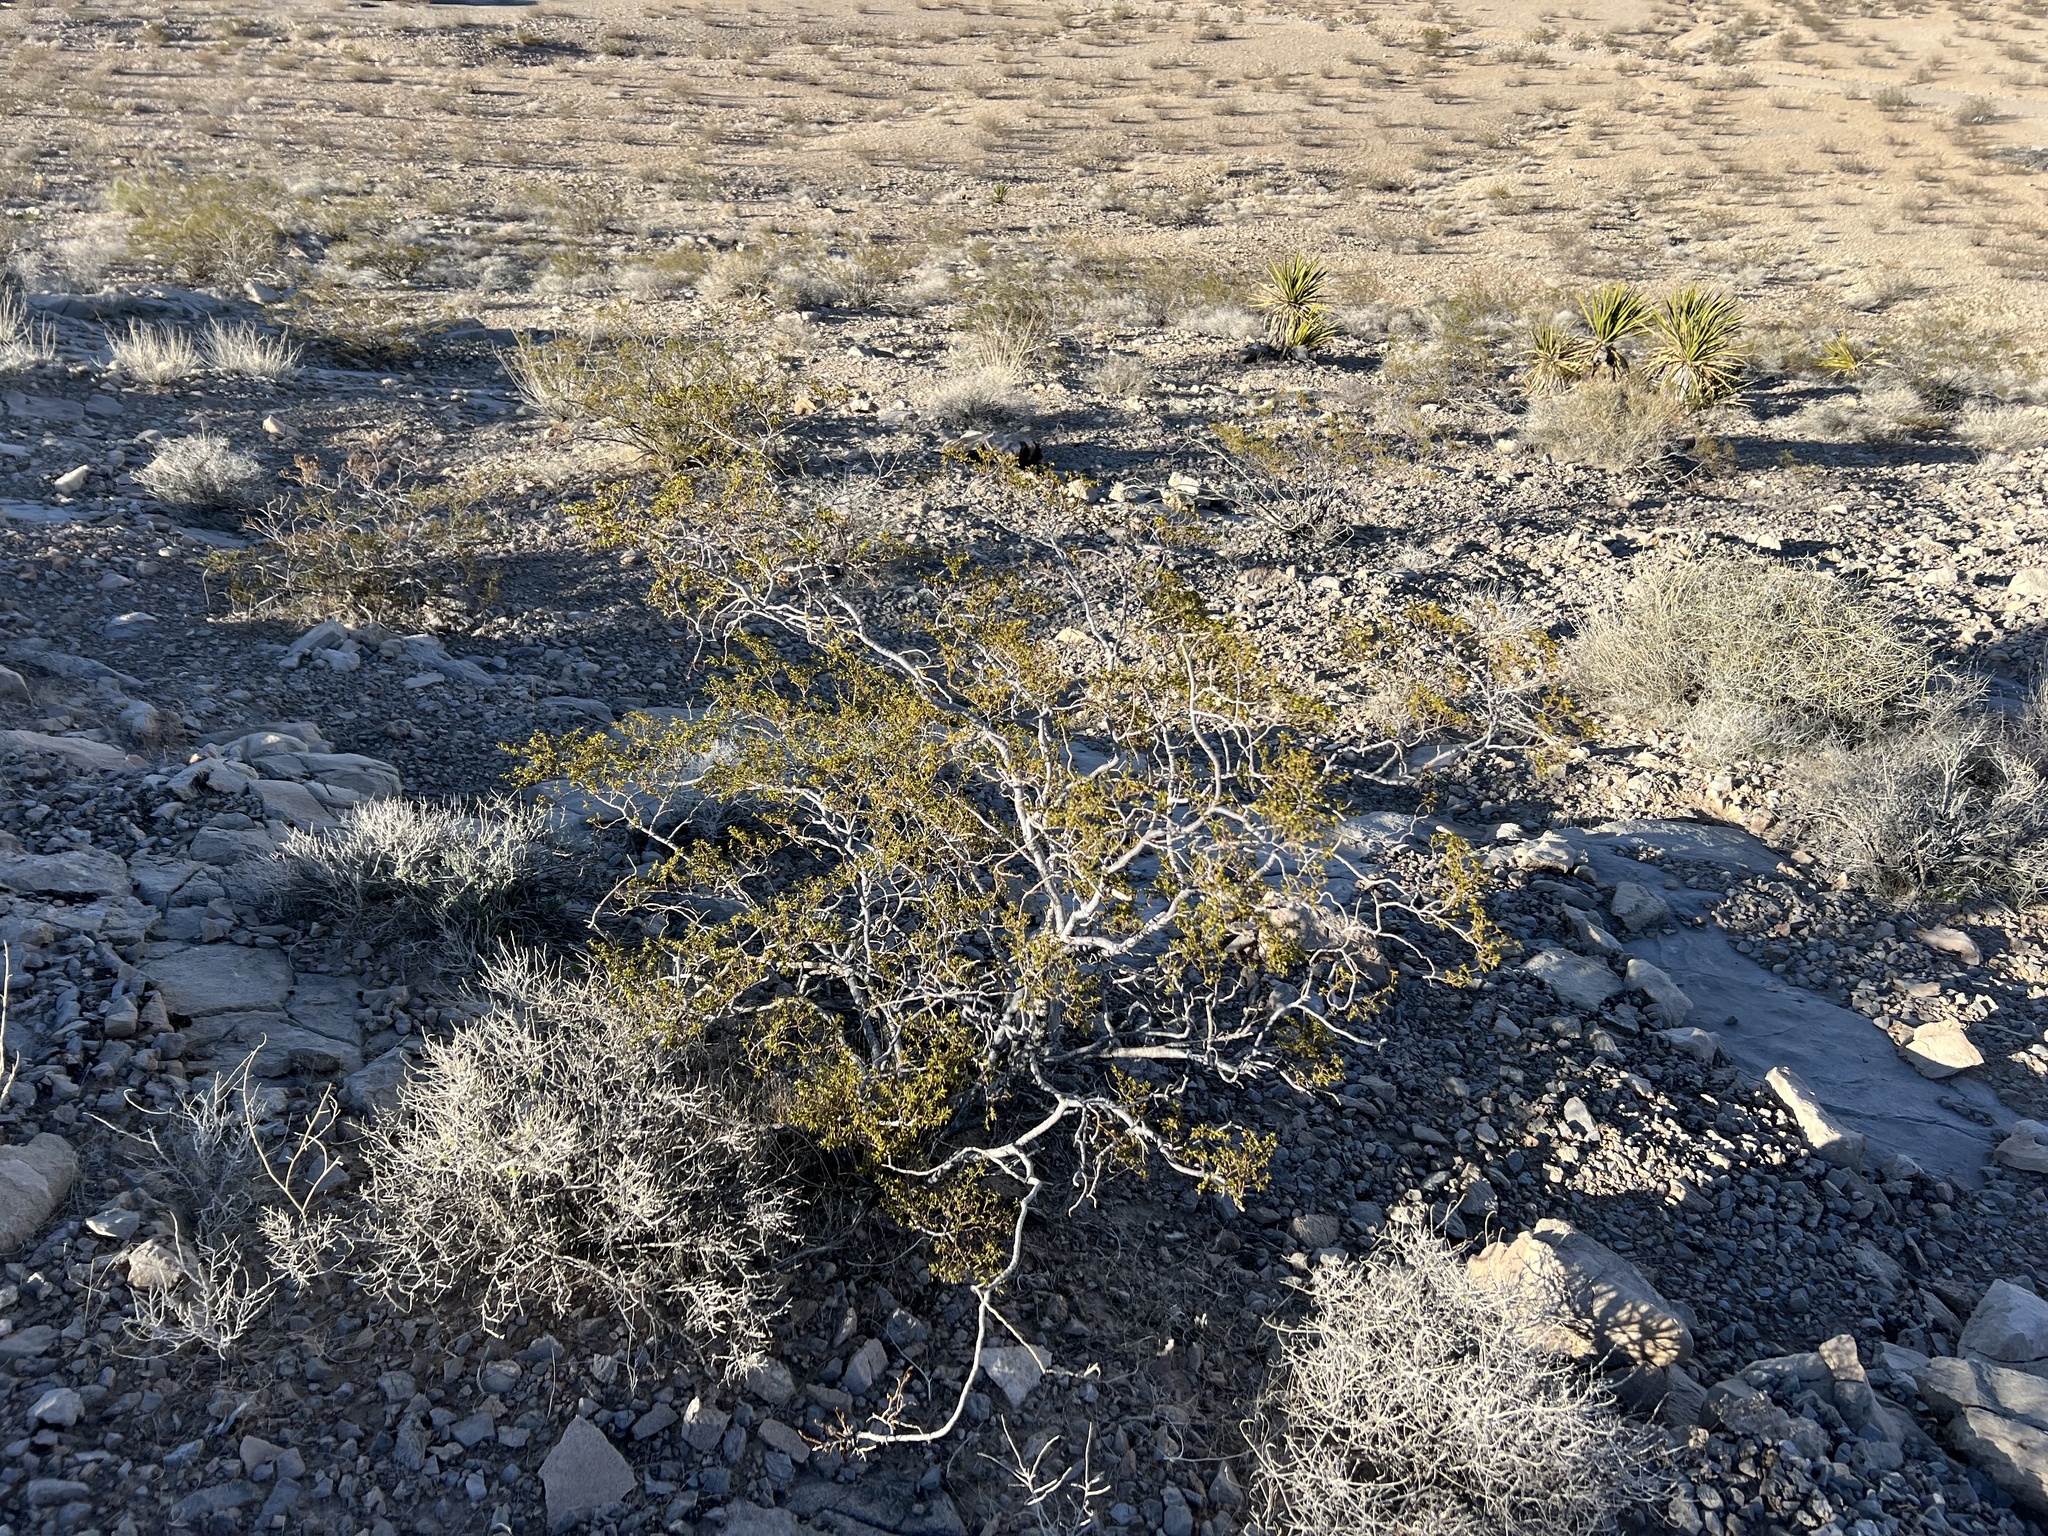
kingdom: Plantae
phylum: Tracheophyta
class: Magnoliopsida
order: Zygophyllales
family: Zygophyllaceae
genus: Larrea
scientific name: Larrea tridentata
